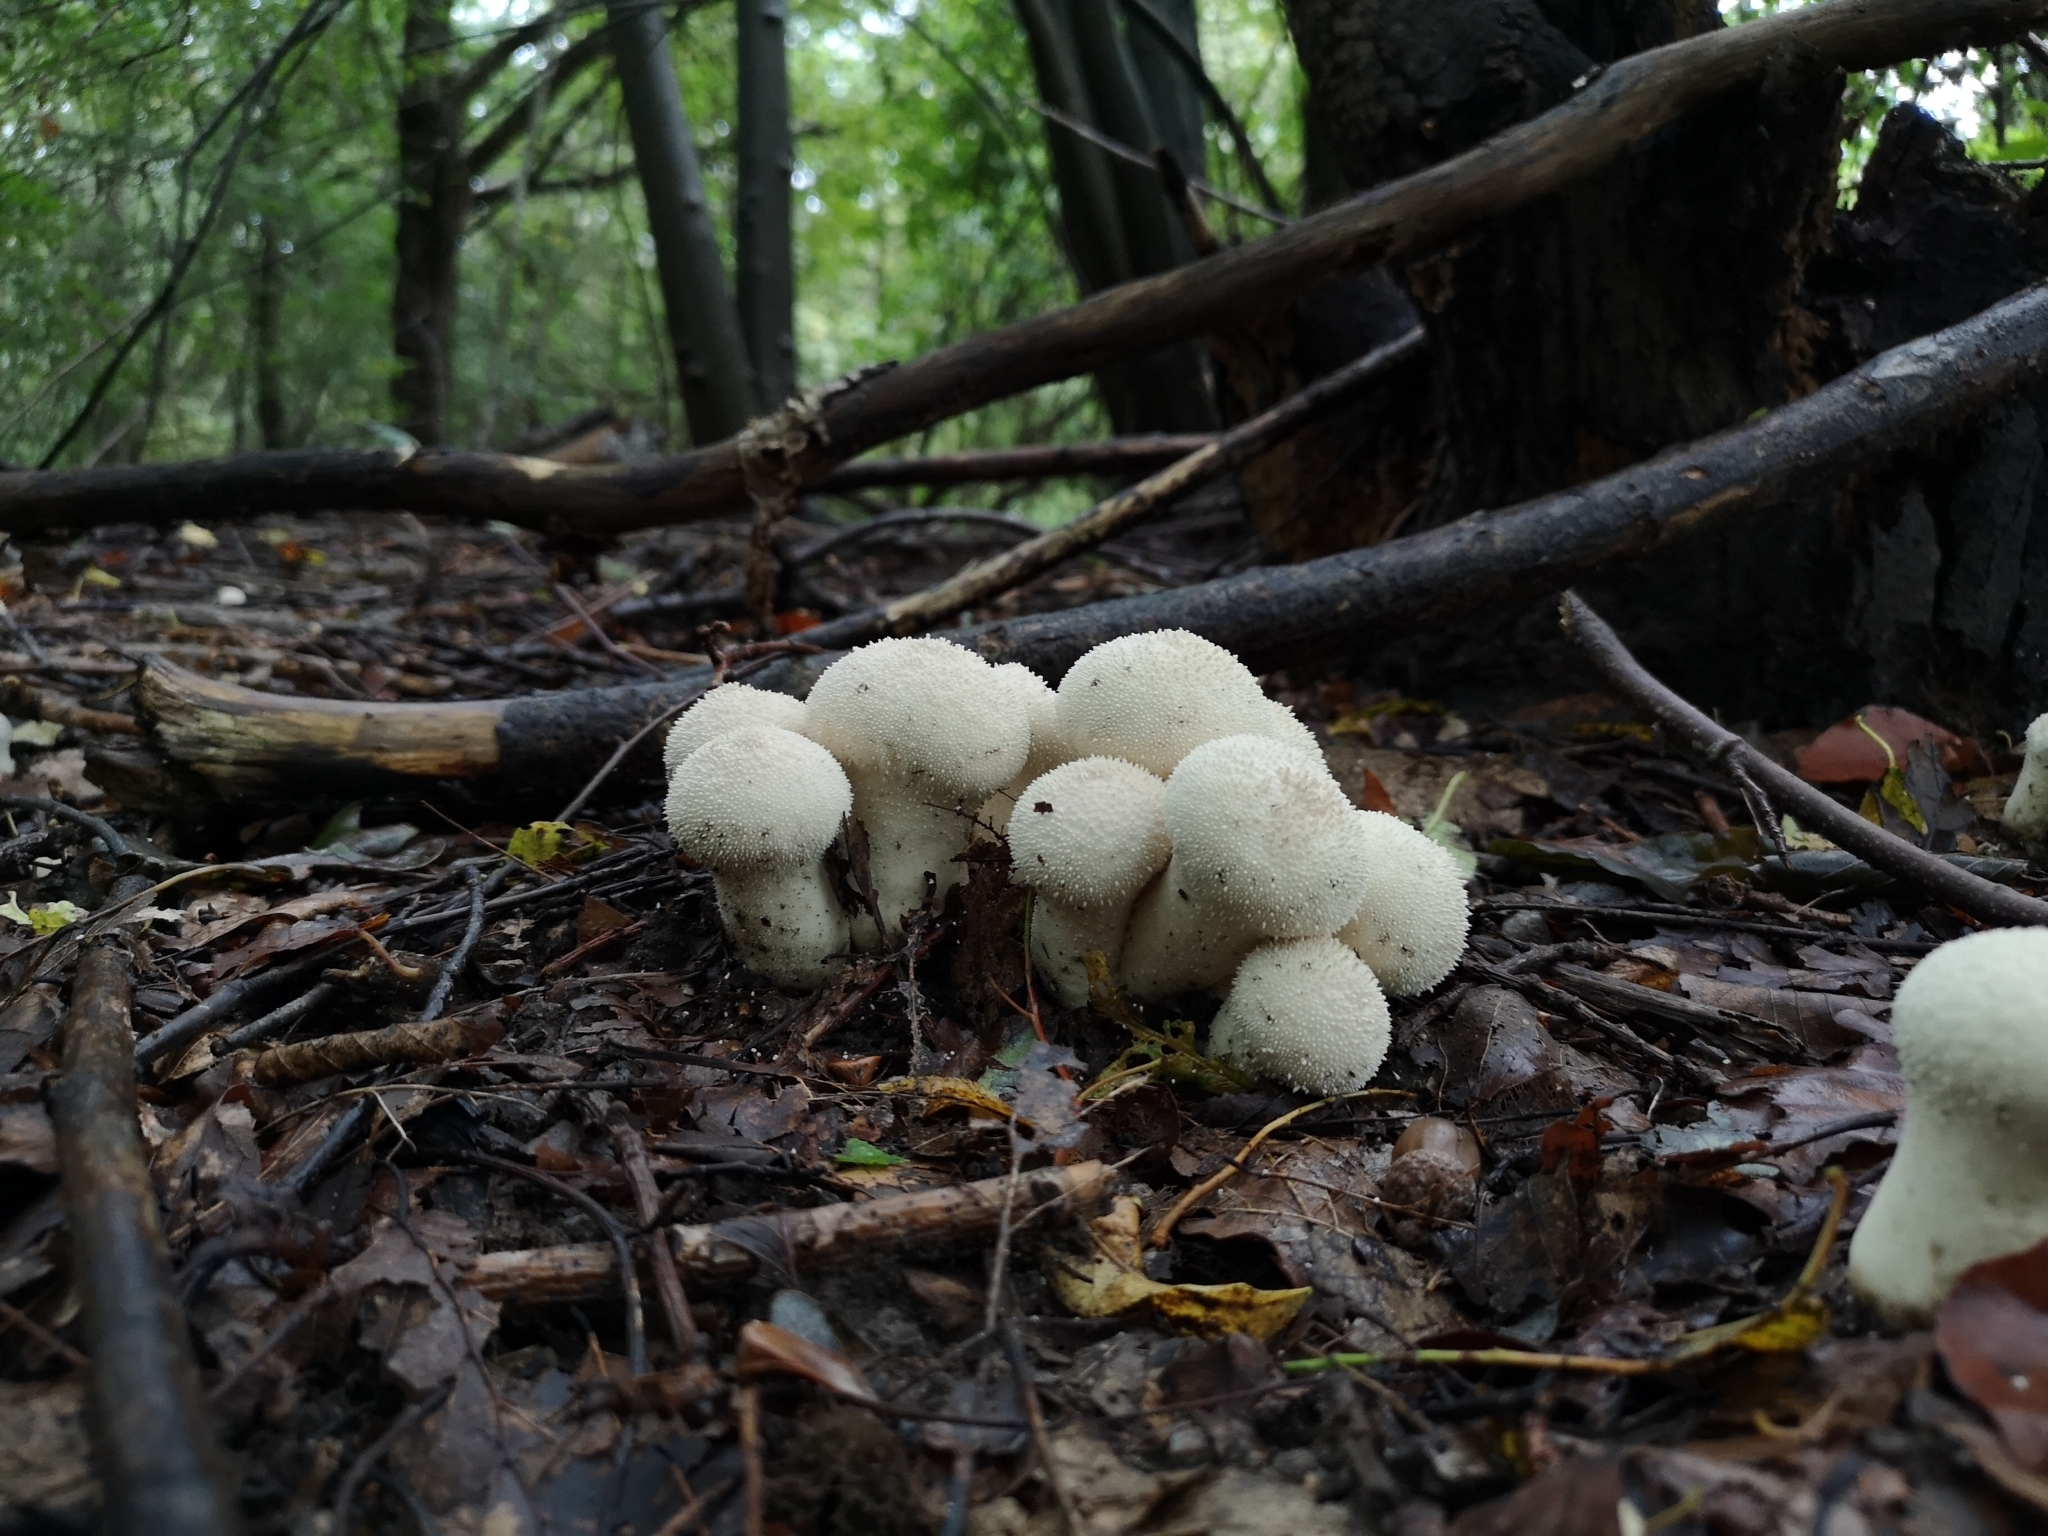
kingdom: Fungi
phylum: Basidiomycota
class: Agaricomycetes
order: Agaricales
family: Lycoperdaceae
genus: Lycoperdon
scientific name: Lycoperdon perlatum
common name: Common puffball
